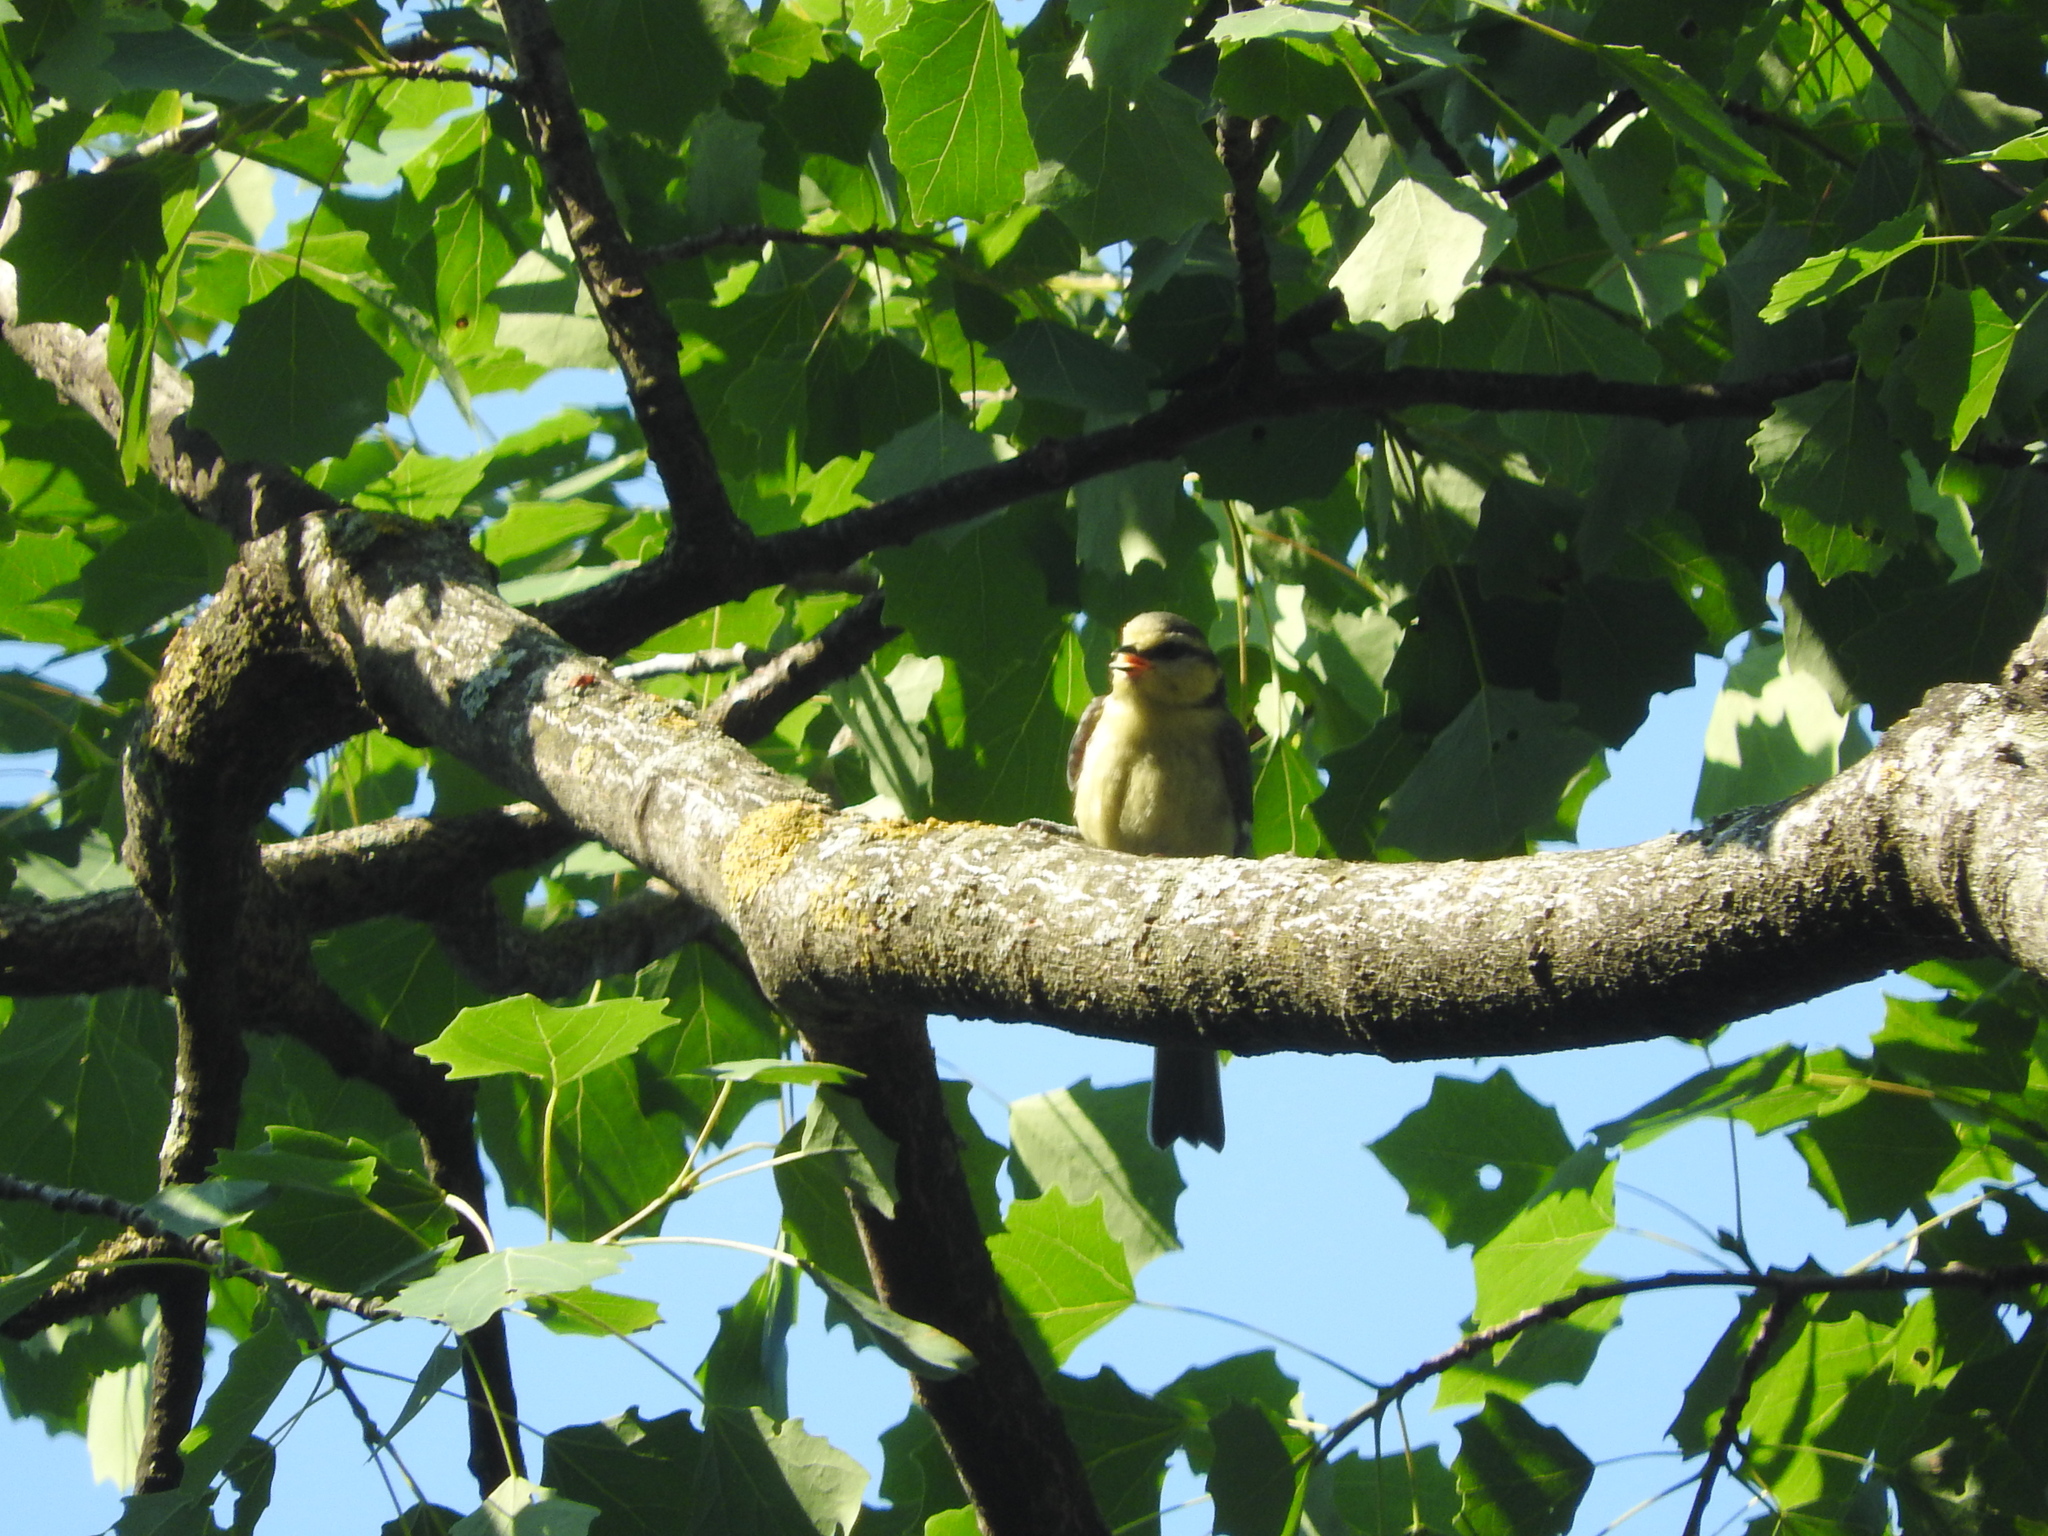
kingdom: Animalia
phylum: Chordata
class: Aves
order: Passeriformes
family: Paridae
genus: Cyanistes
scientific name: Cyanistes caeruleus
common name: Eurasian blue tit
